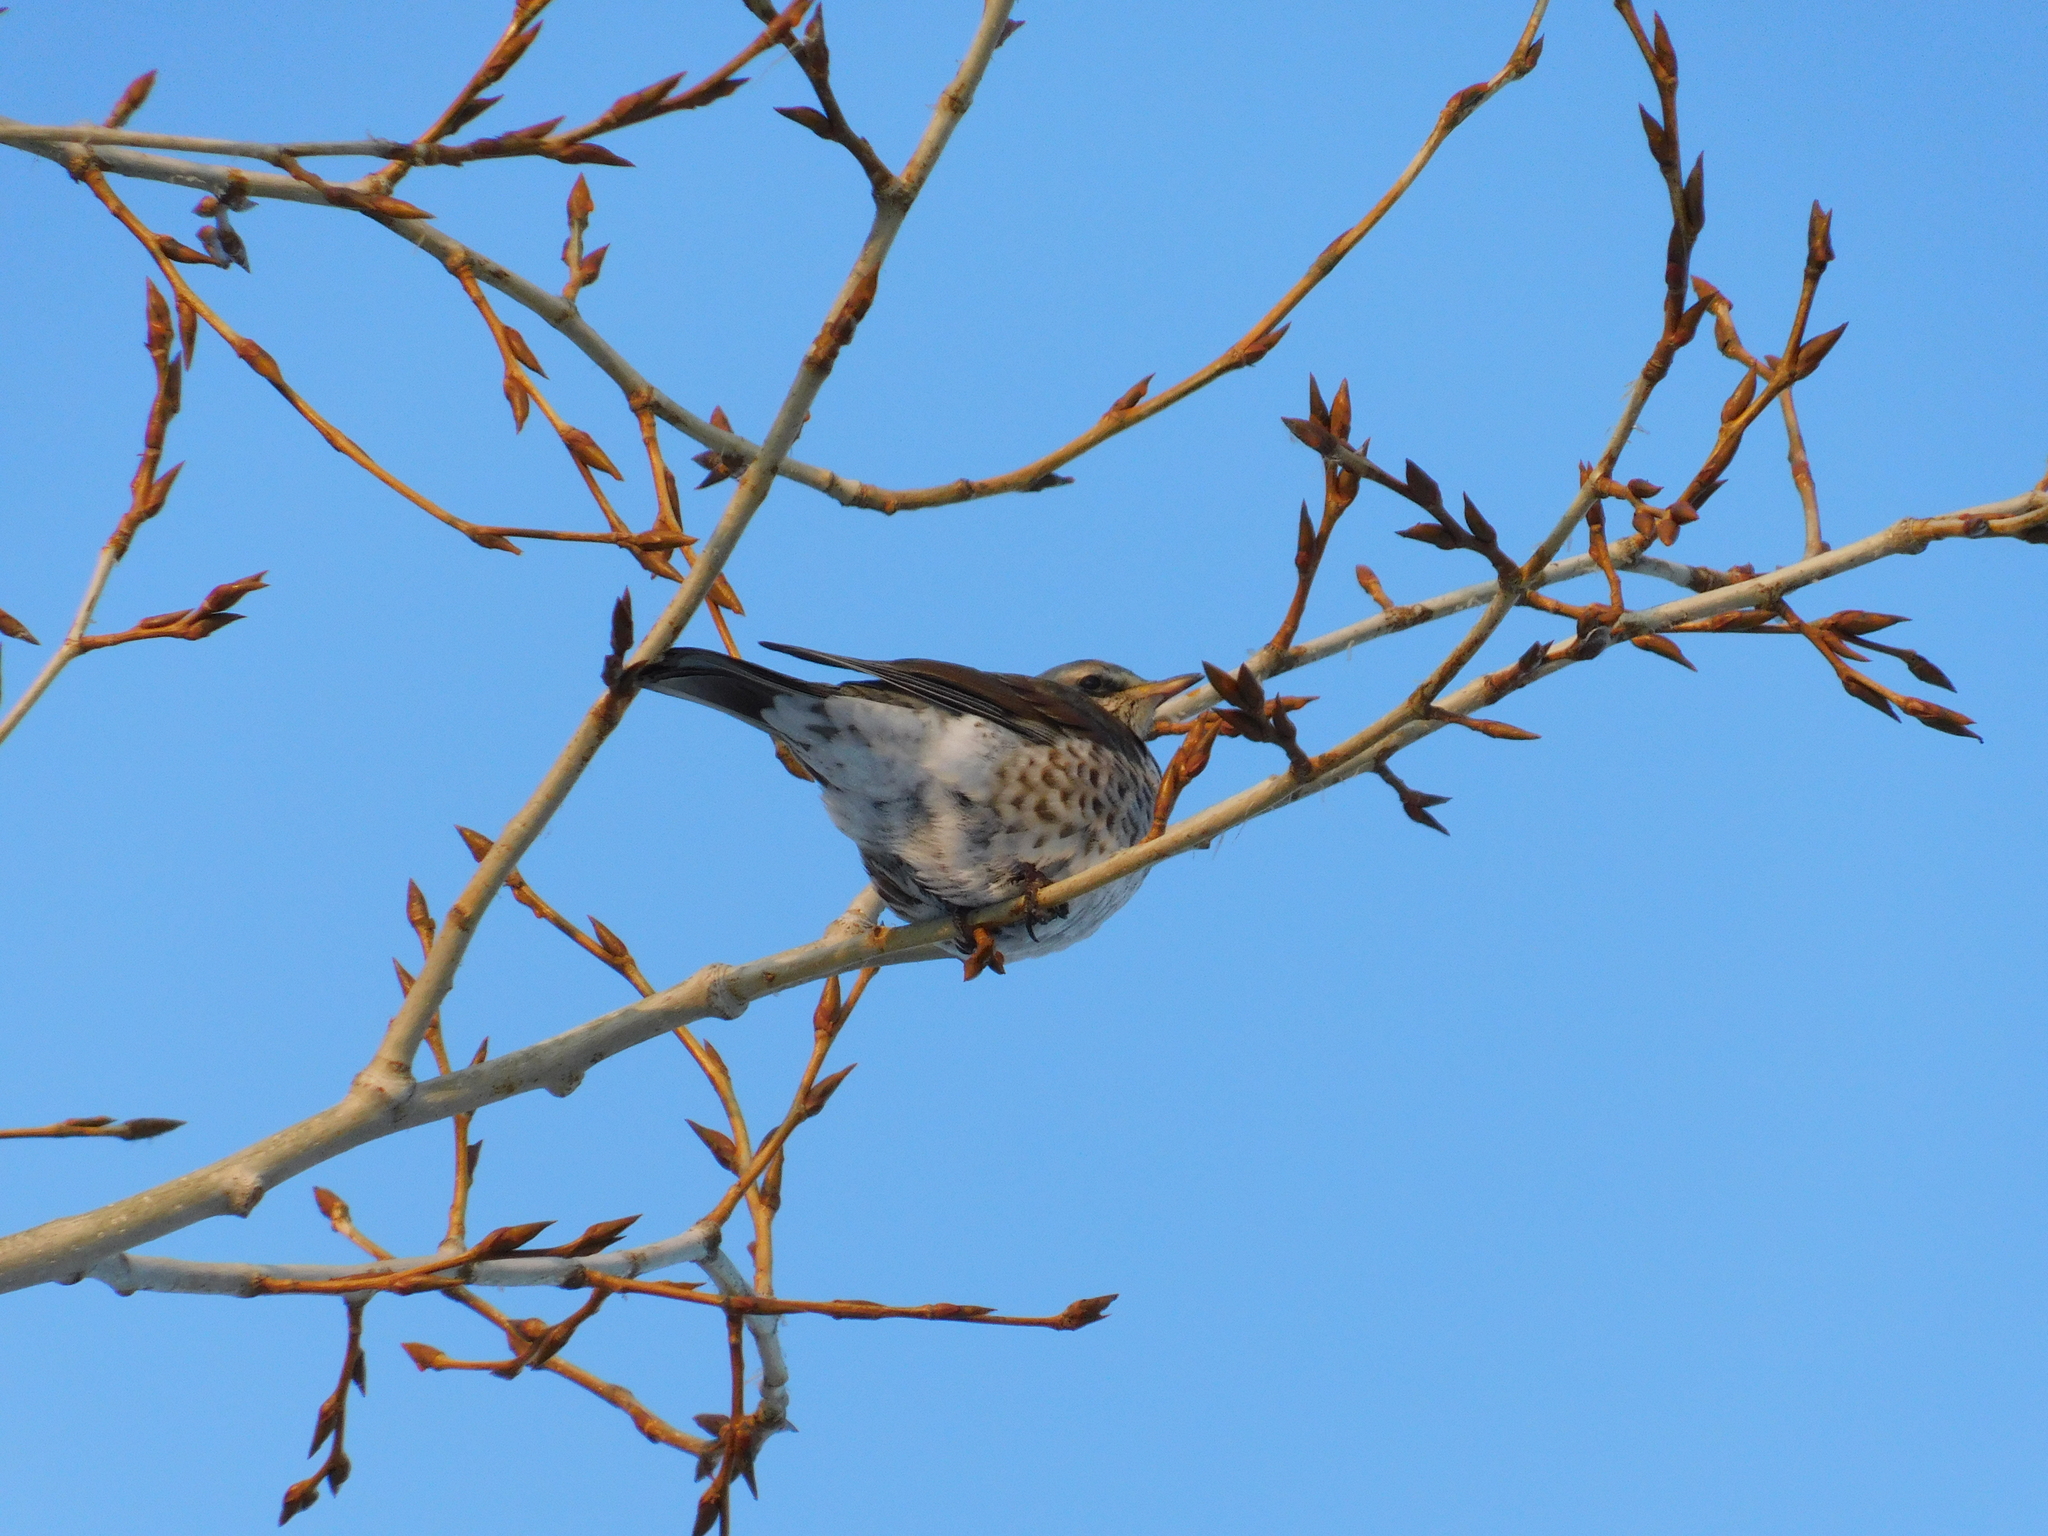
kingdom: Animalia
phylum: Chordata
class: Aves
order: Passeriformes
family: Turdidae
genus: Turdus
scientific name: Turdus pilaris
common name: Fieldfare
